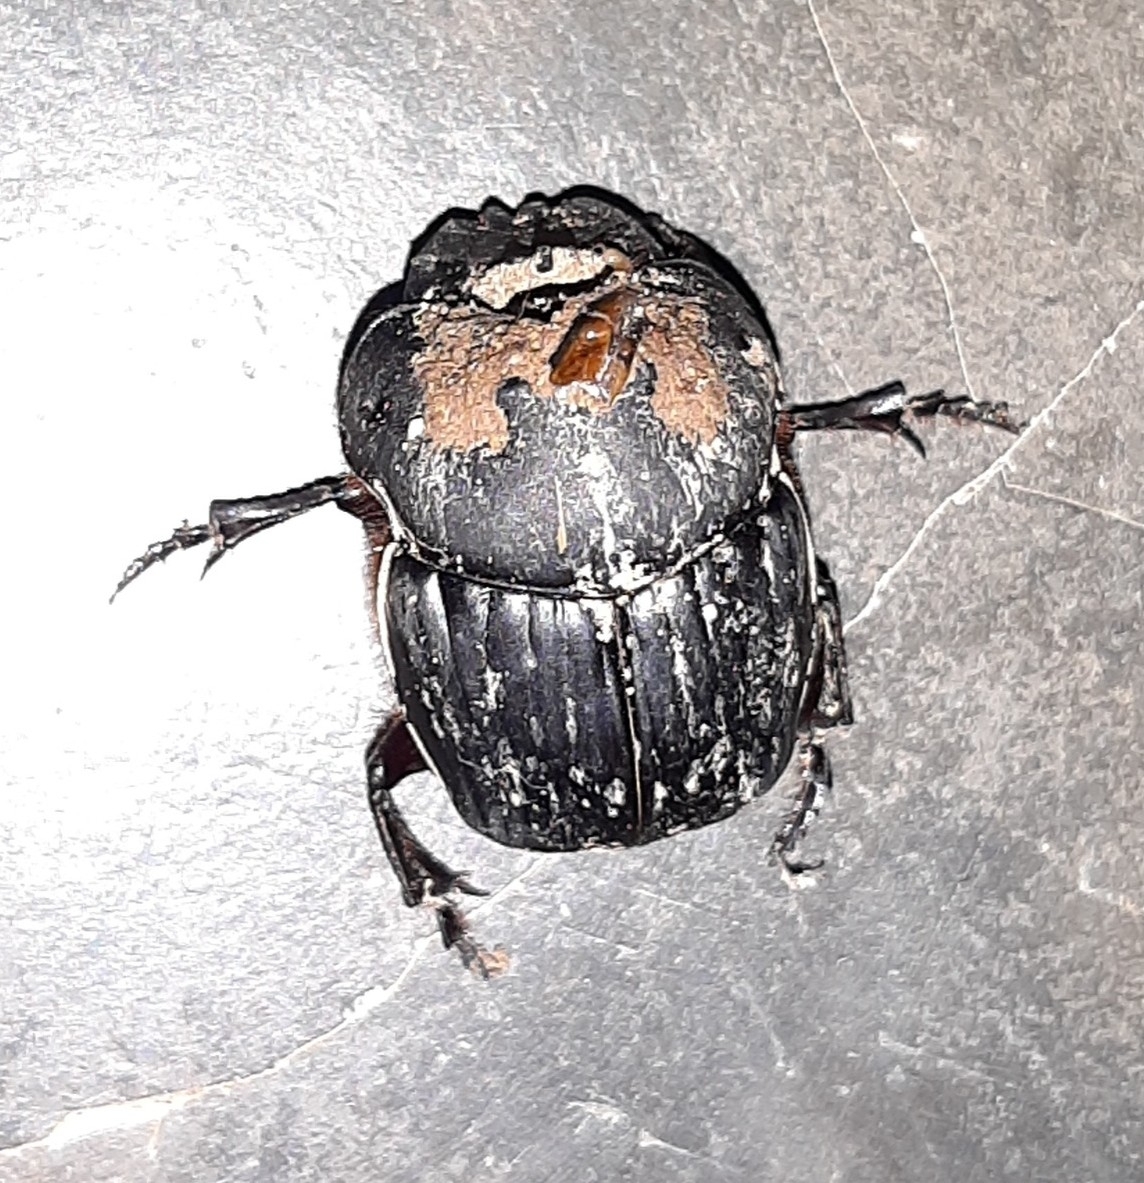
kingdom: Animalia
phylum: Arthropoda
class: Insecta
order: Coleoptera
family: Scarabaeidae
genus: Coprophanaeus
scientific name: Coprophanaeus telamon
